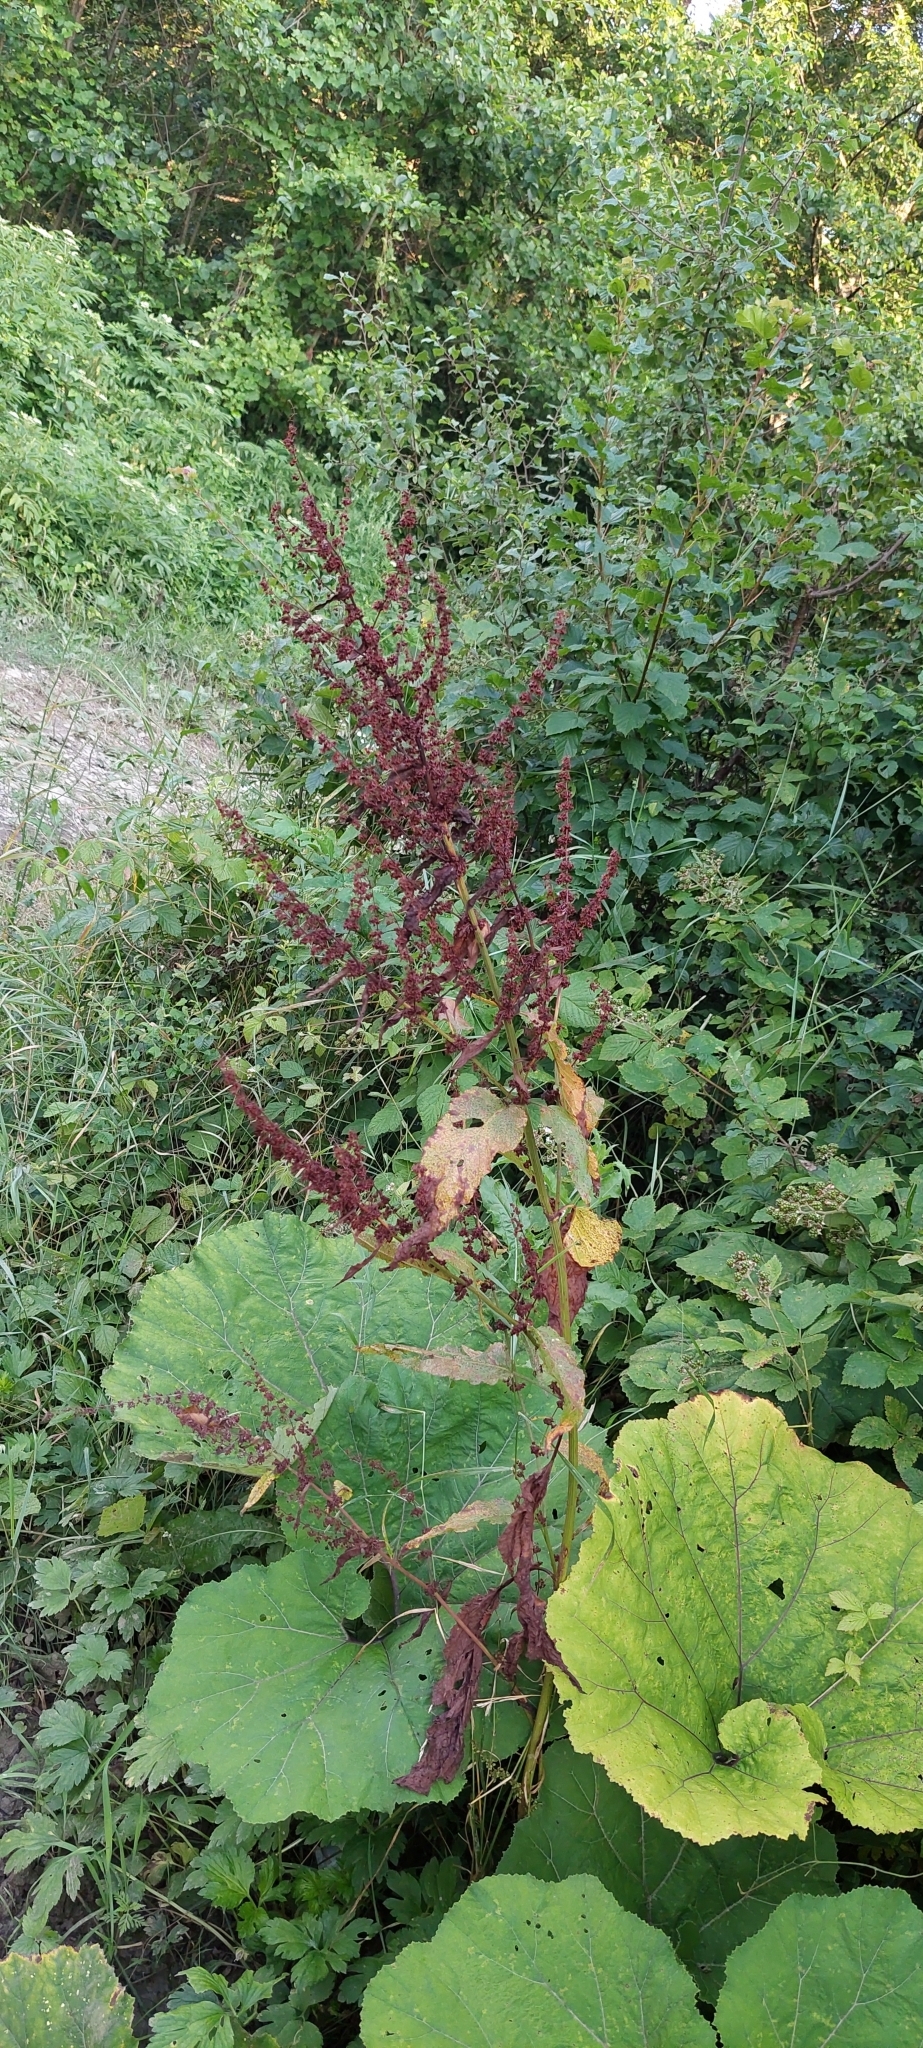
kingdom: Plantae
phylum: Tracheophyta
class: Magnoliopsida
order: Caryophyllales
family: Polygonaceae
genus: Rumex
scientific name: Rumex obtusifolius
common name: Bitter dock
